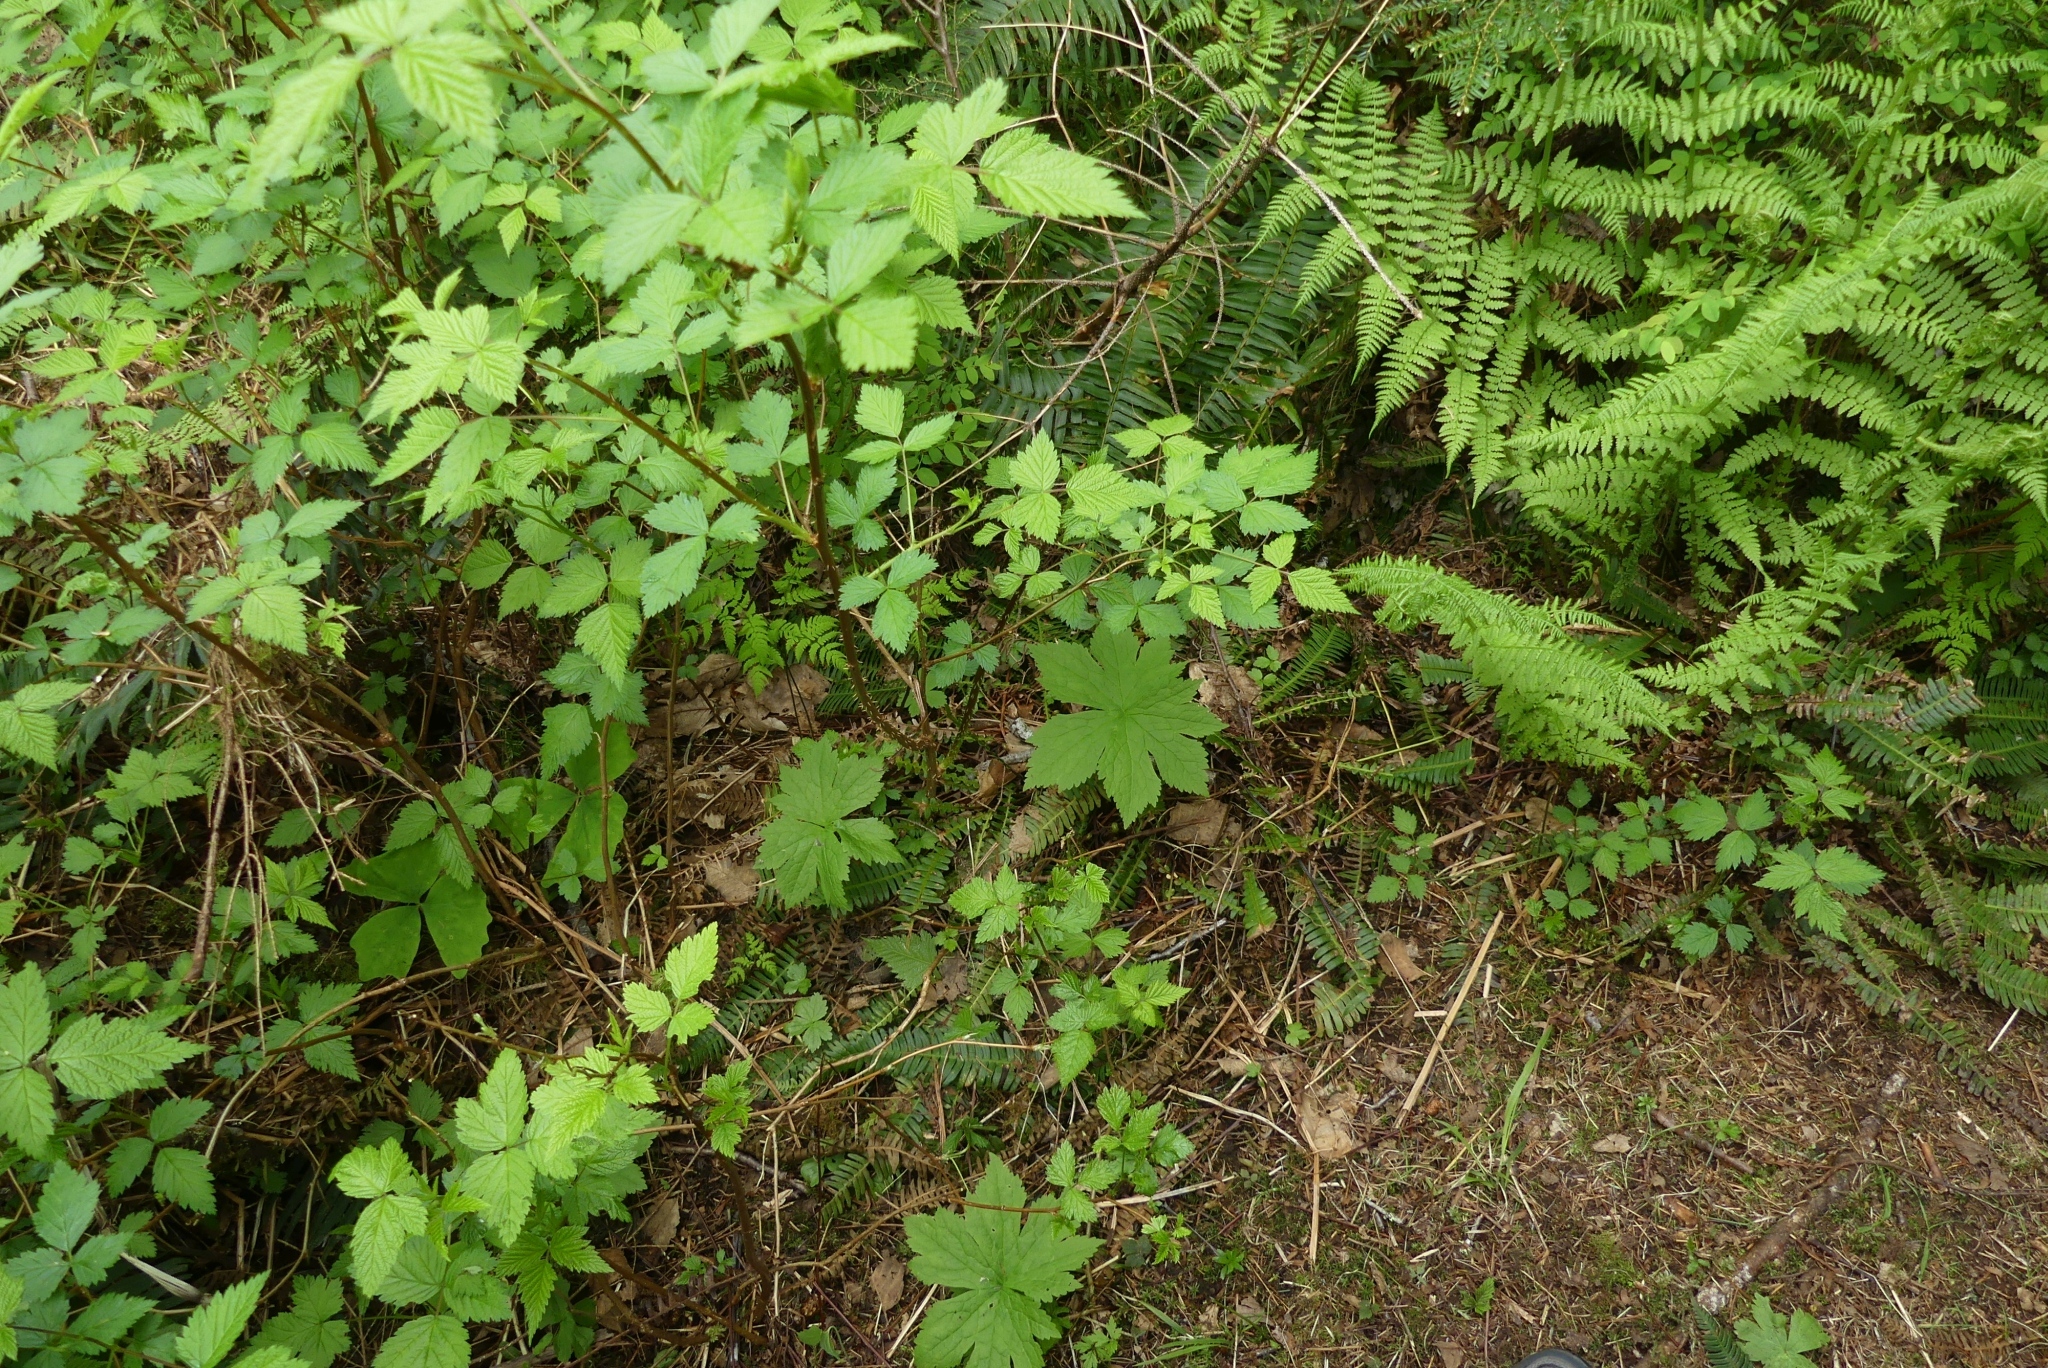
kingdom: Plantae
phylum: Tracheophyta
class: Magnoliopsida
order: Ranunculales
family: Ranunculaceae
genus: Trautvetteria
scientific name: Trautvetteria carolinensis
